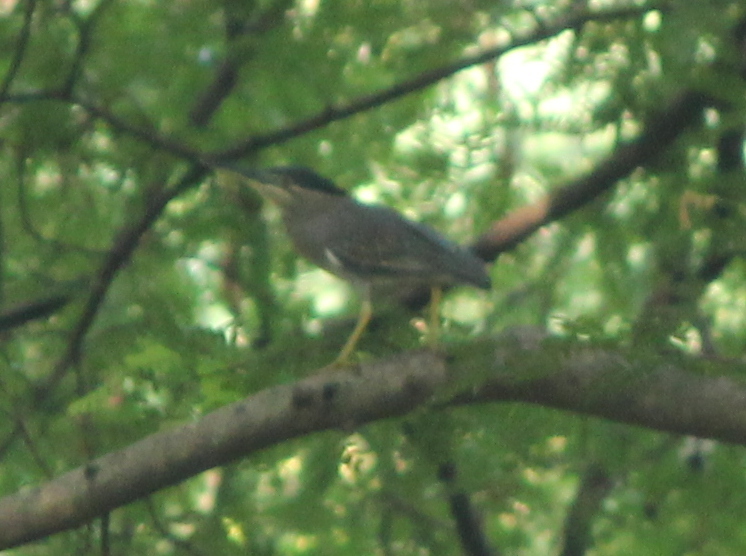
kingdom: Animalia
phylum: Chordata
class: Aves
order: Pelecaniformes
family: Ardeidae
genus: Butorides
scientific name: Butorides striata
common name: Striated heron
